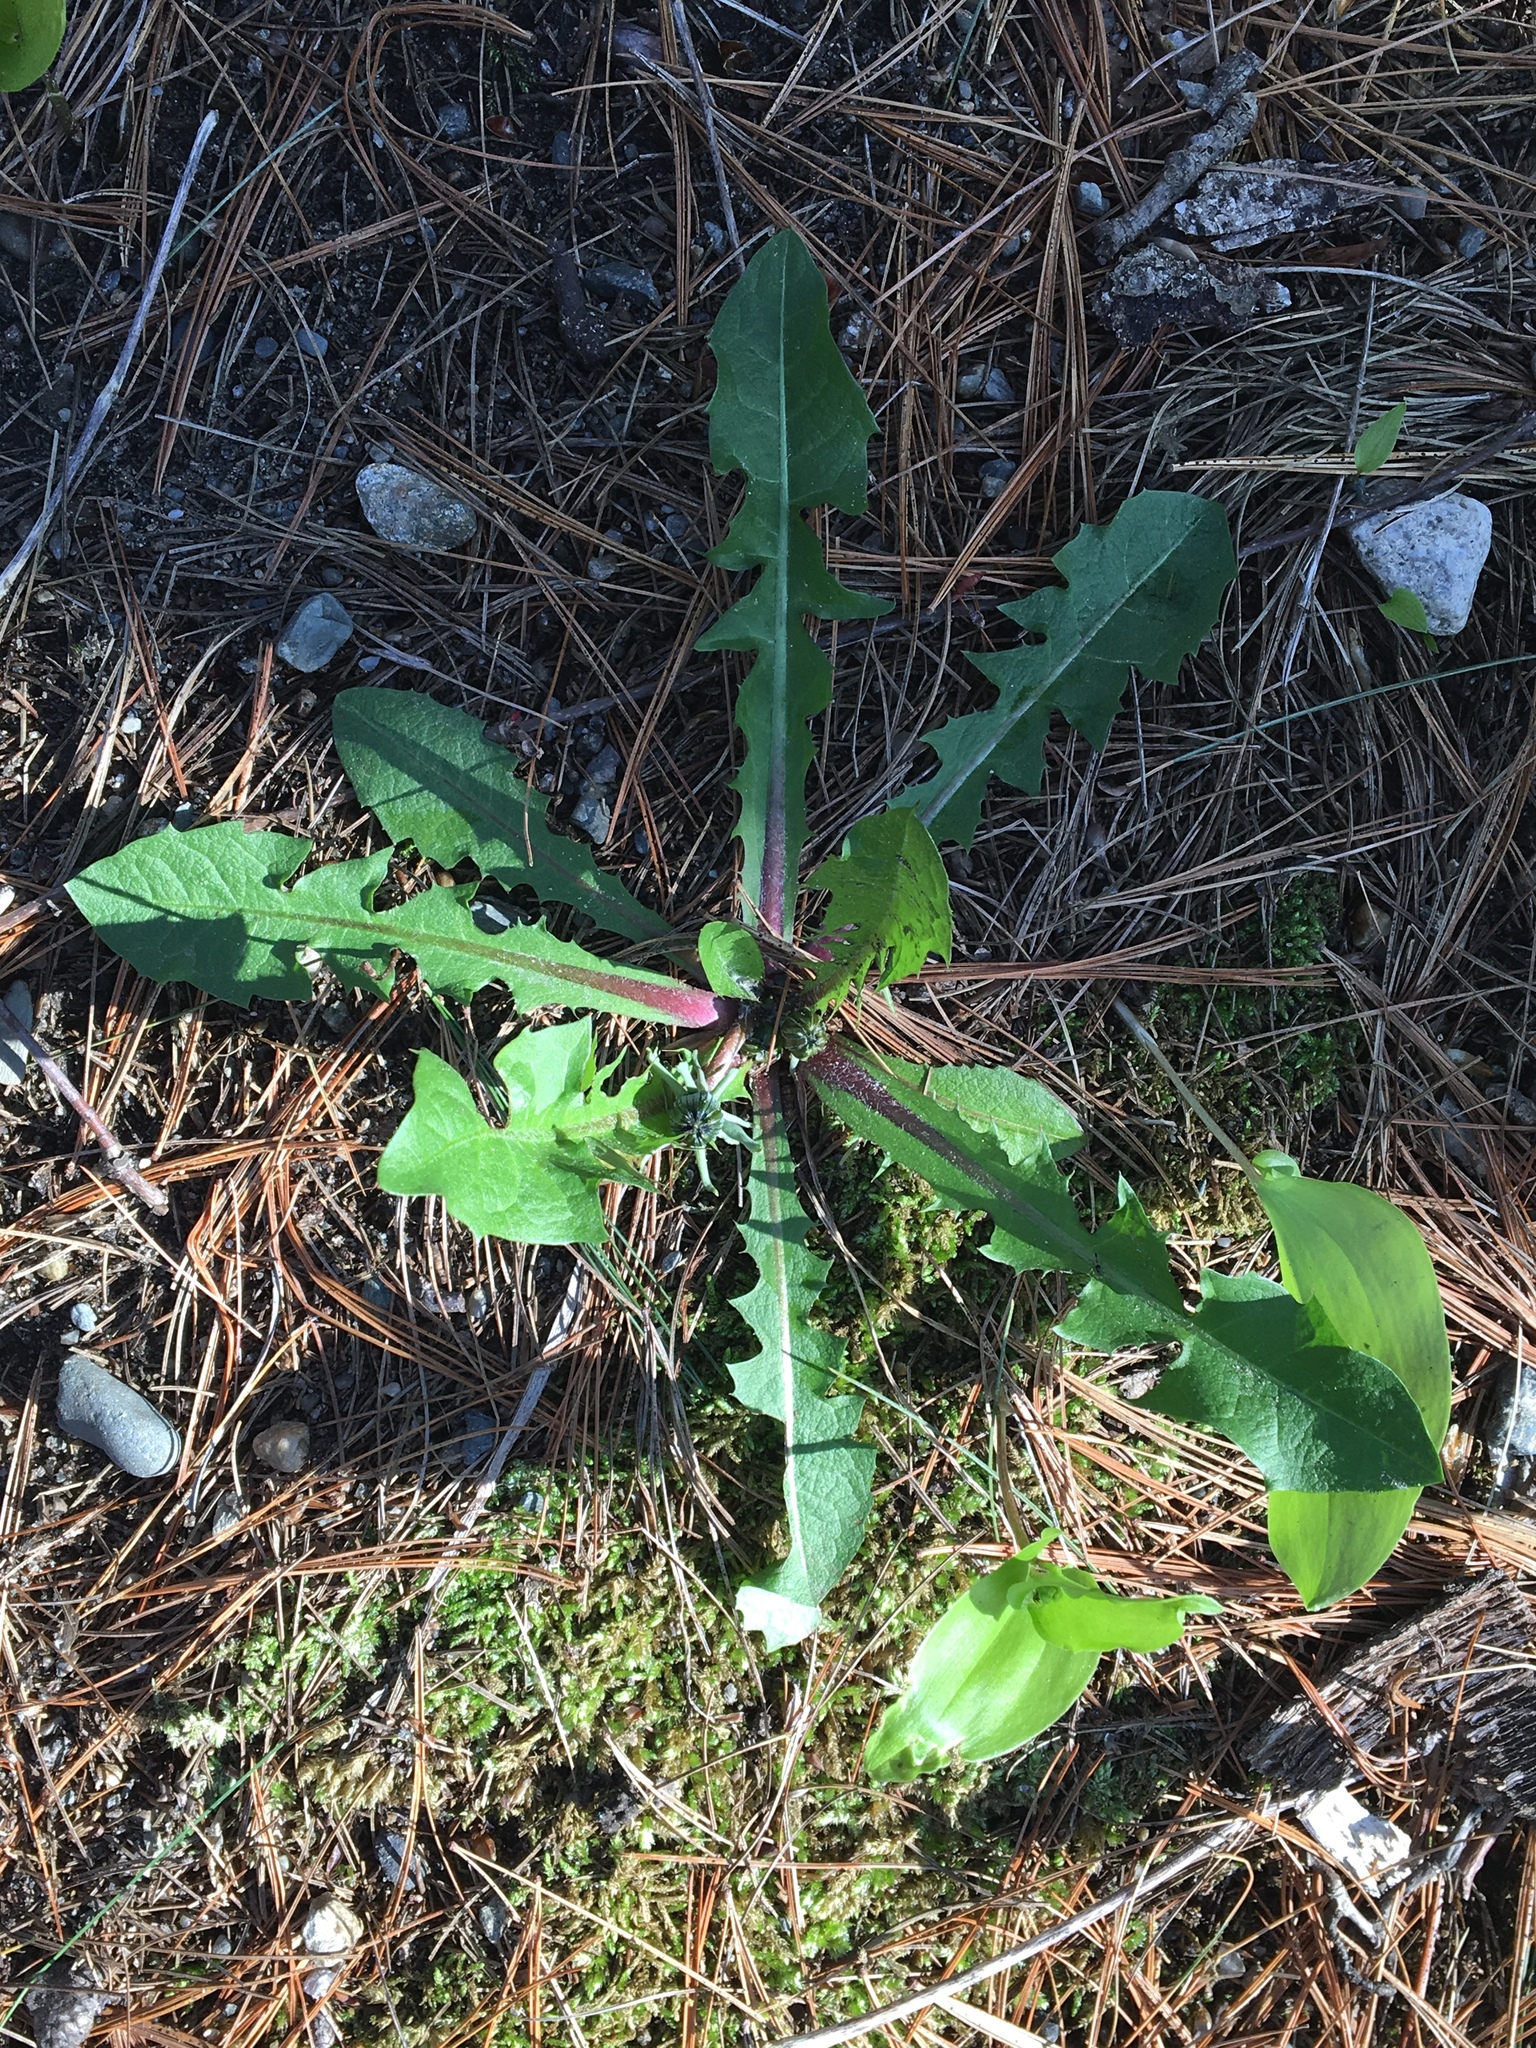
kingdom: Plantae
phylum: Tracheophyta
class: Magnoliopsida
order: Asterales
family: Asteraceae
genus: Taraxacum
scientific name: Taraxacum officinale
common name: Common dandelion
